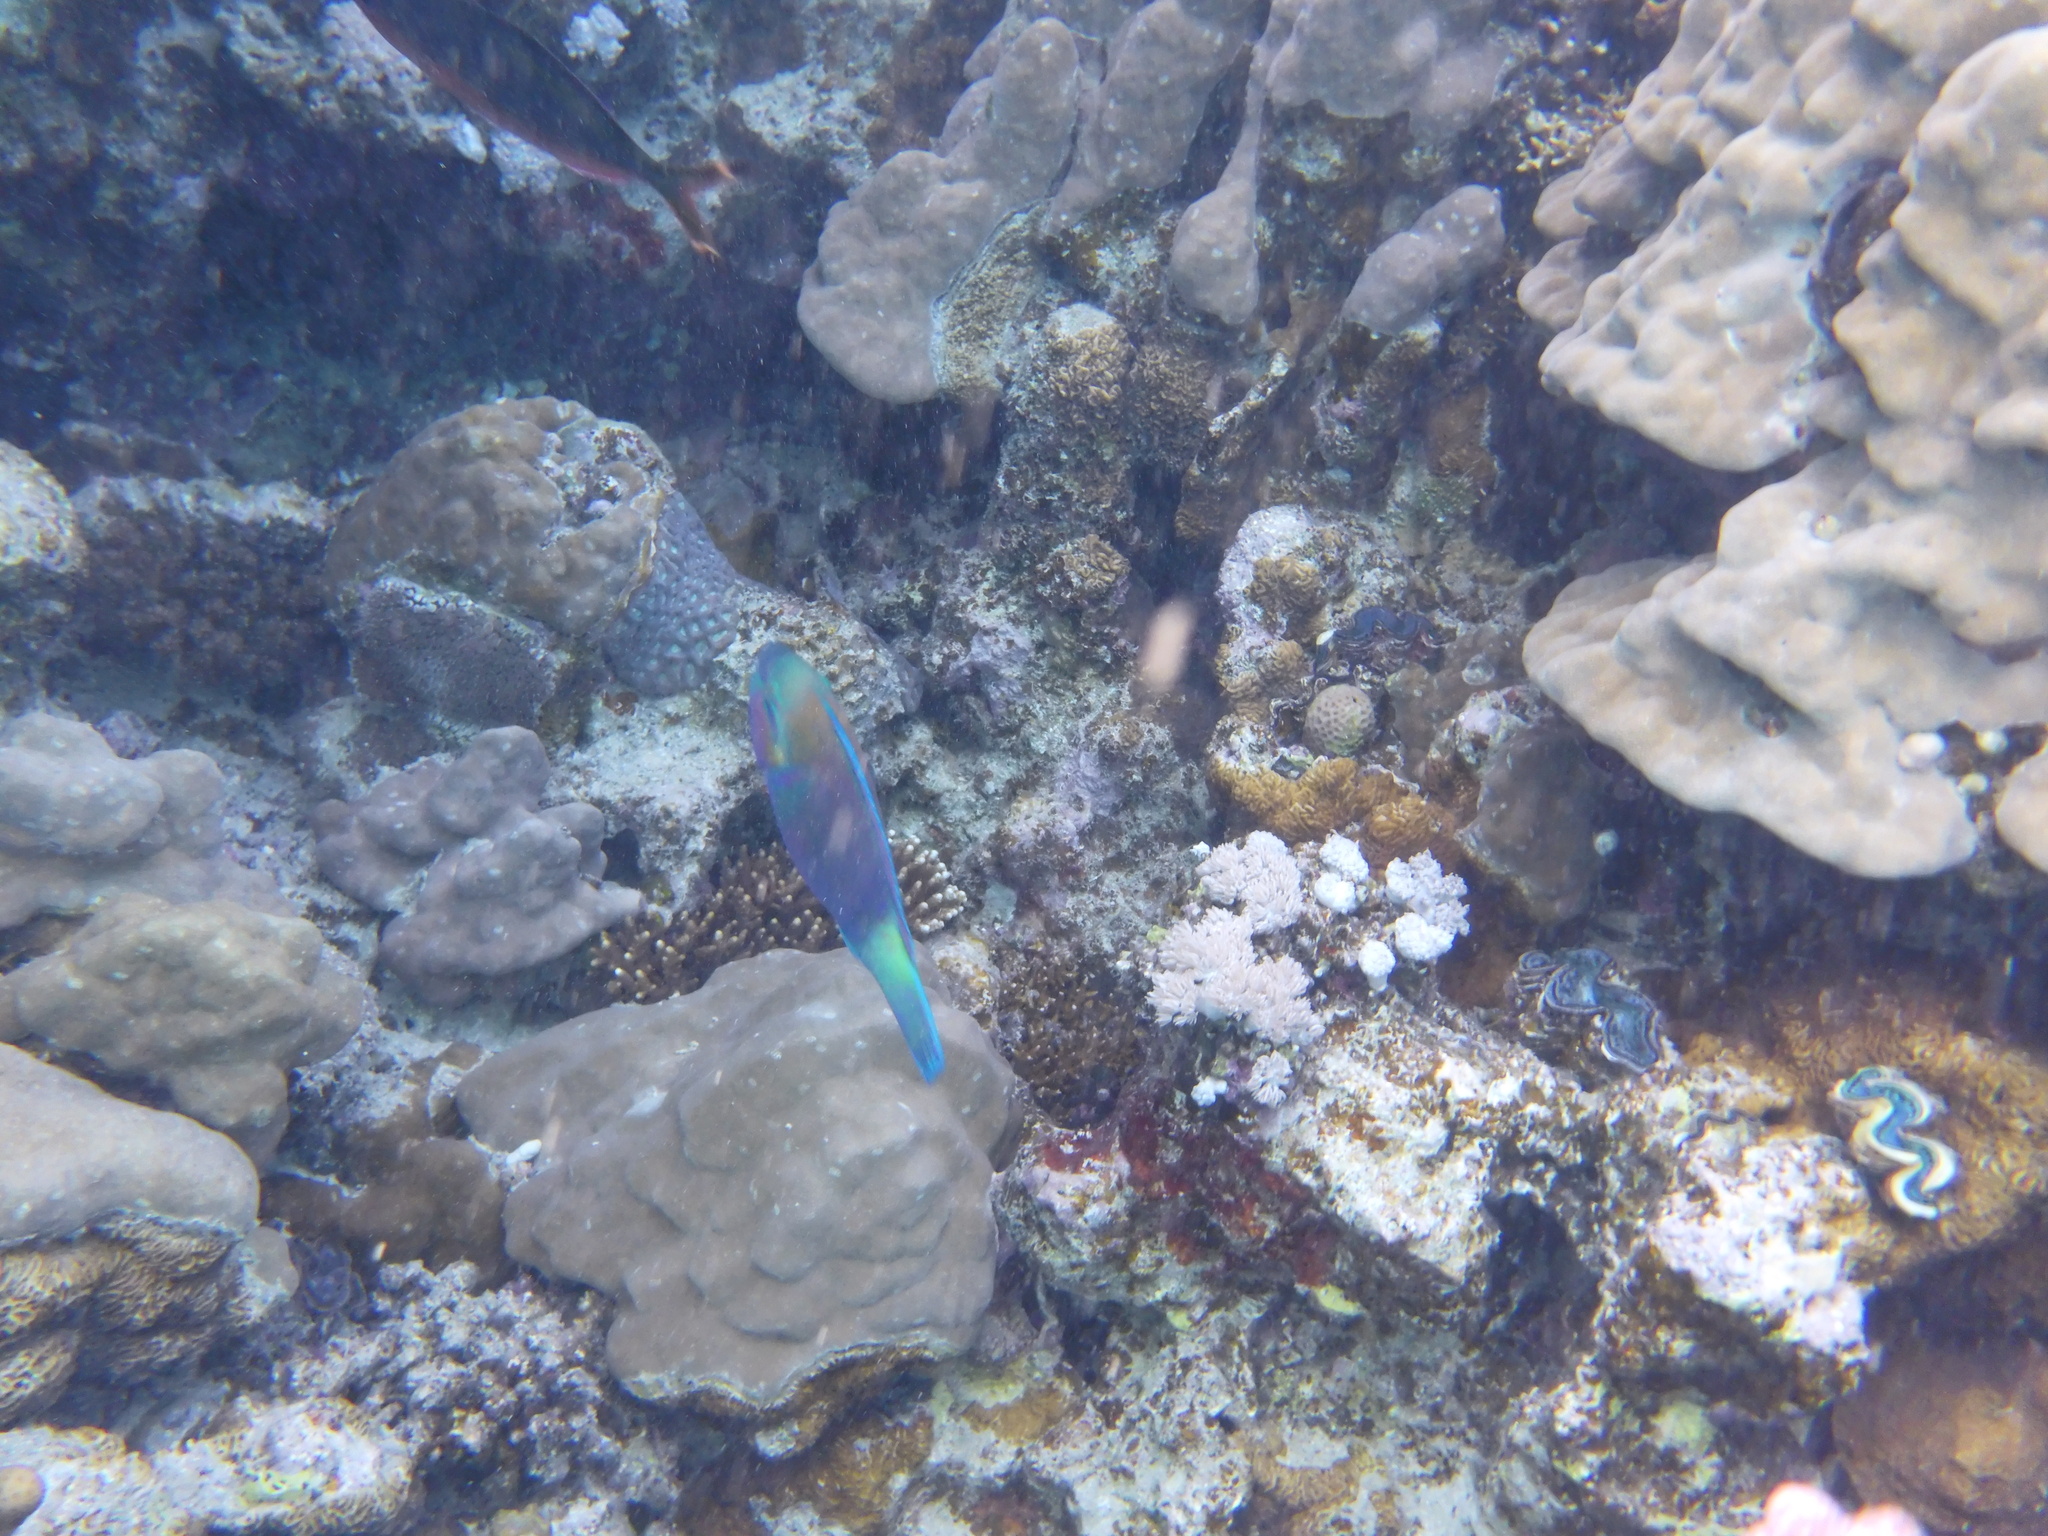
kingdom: Animalia
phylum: Chordata
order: Perciformes
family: Scaridae
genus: Chlorurus
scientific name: Chlorurus sordidus
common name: Bullethead parrotfish
